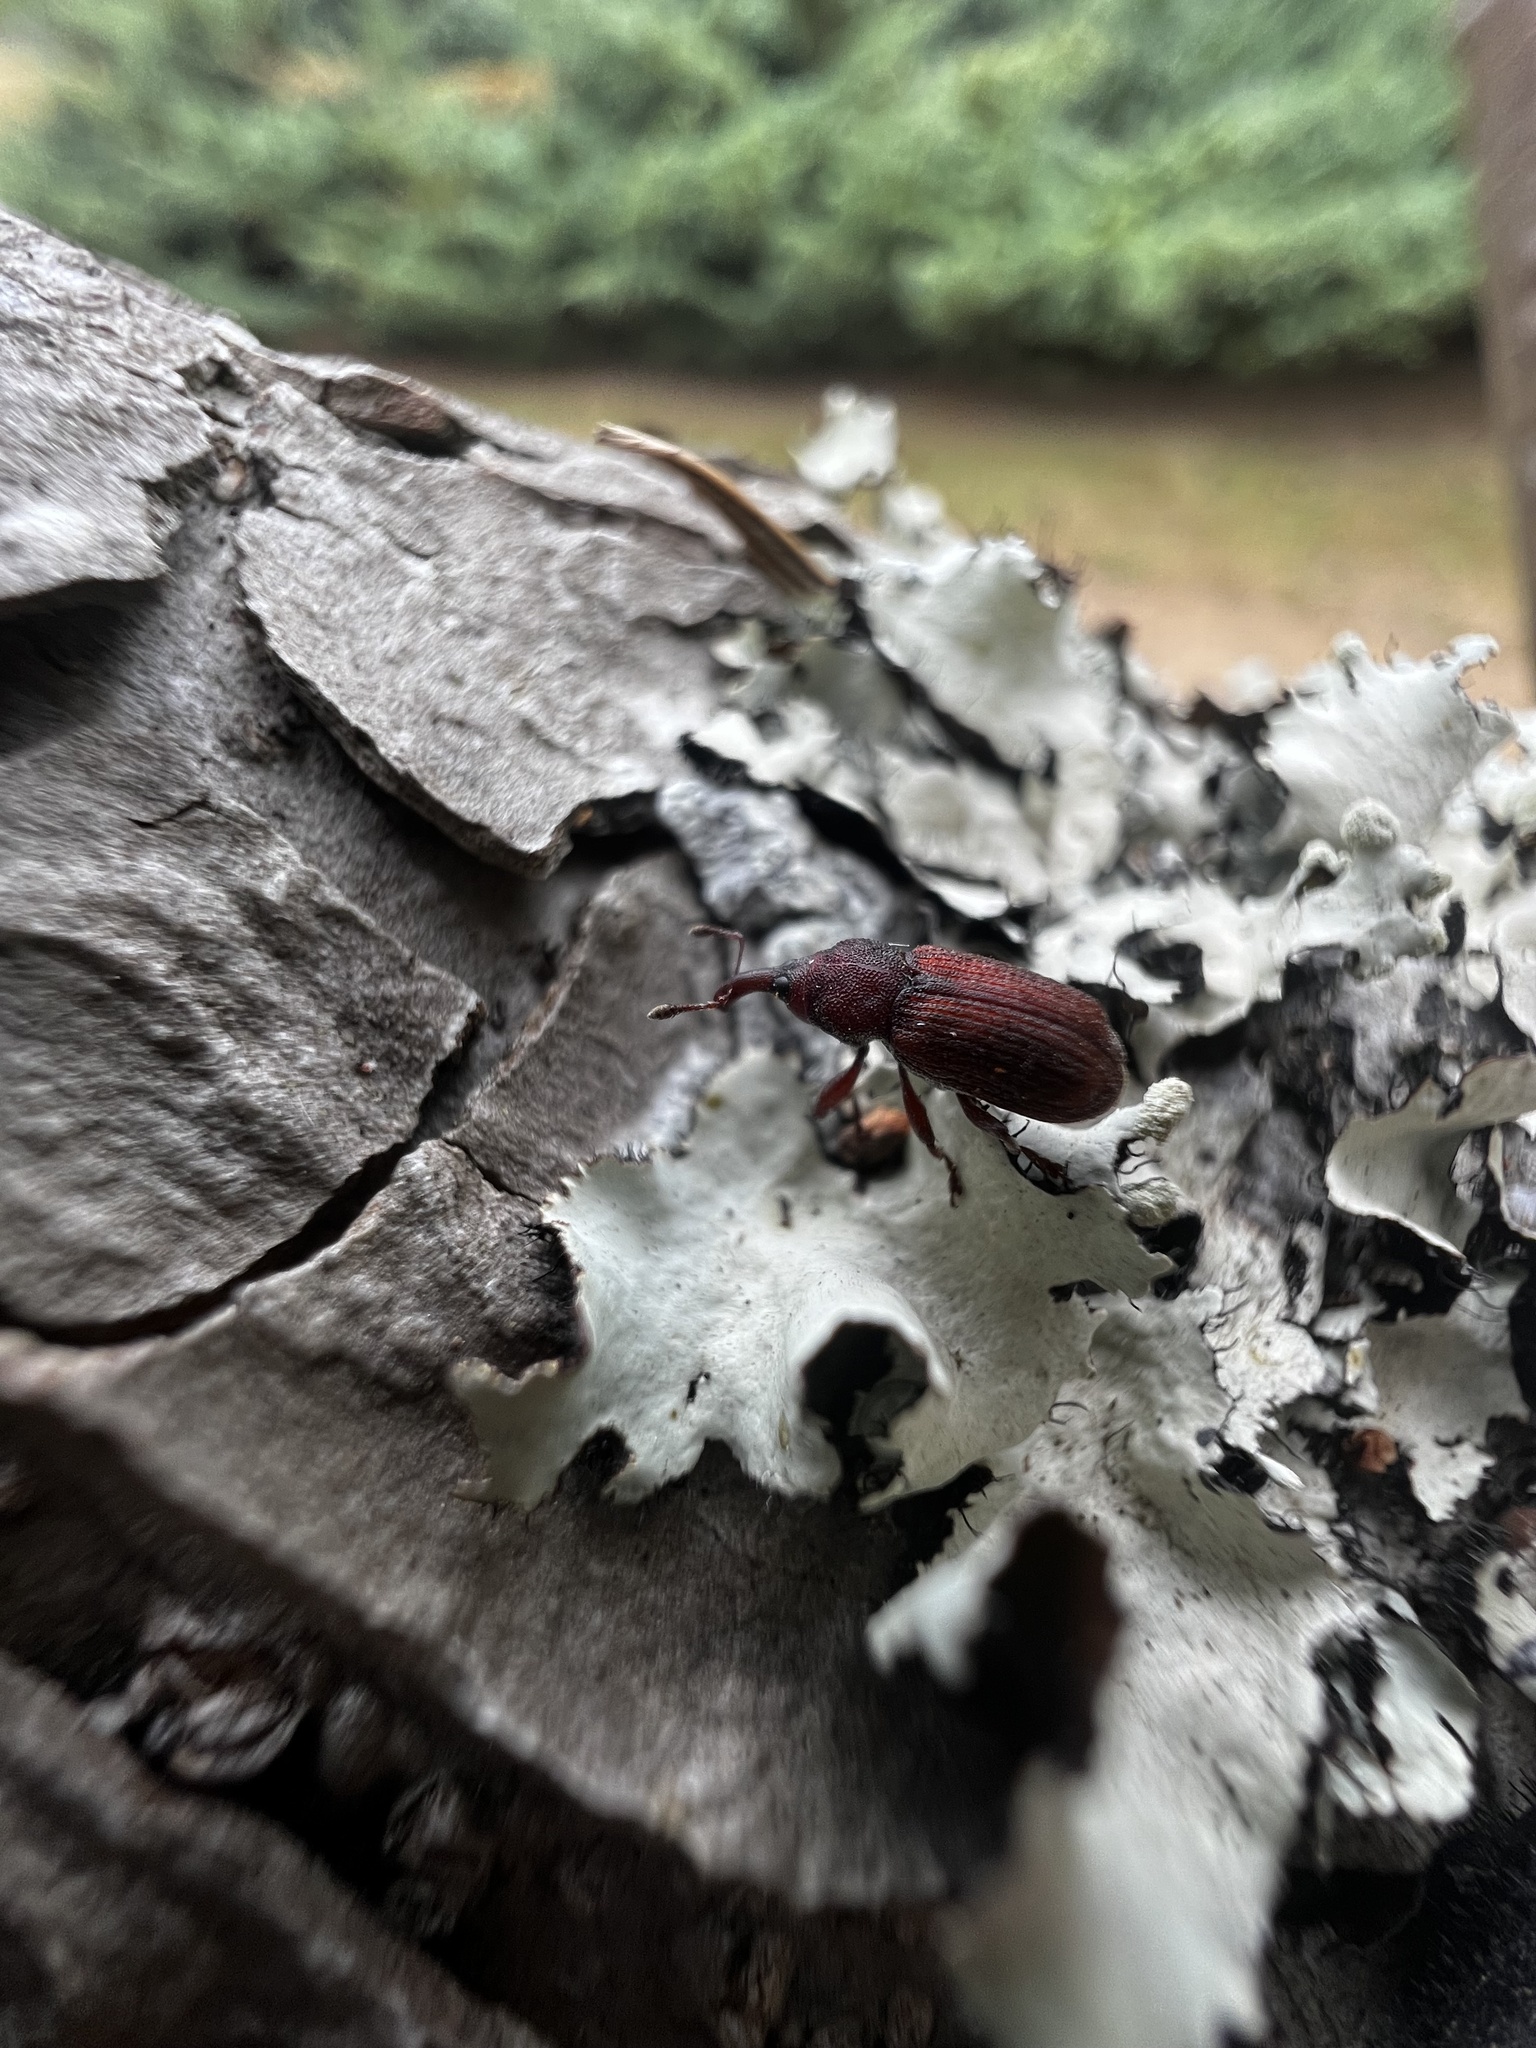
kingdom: Animalia
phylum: Arthropoda
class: Insecta
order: Coleoptera
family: Curculionidae
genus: Magdalis
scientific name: Magdalis imbellis
